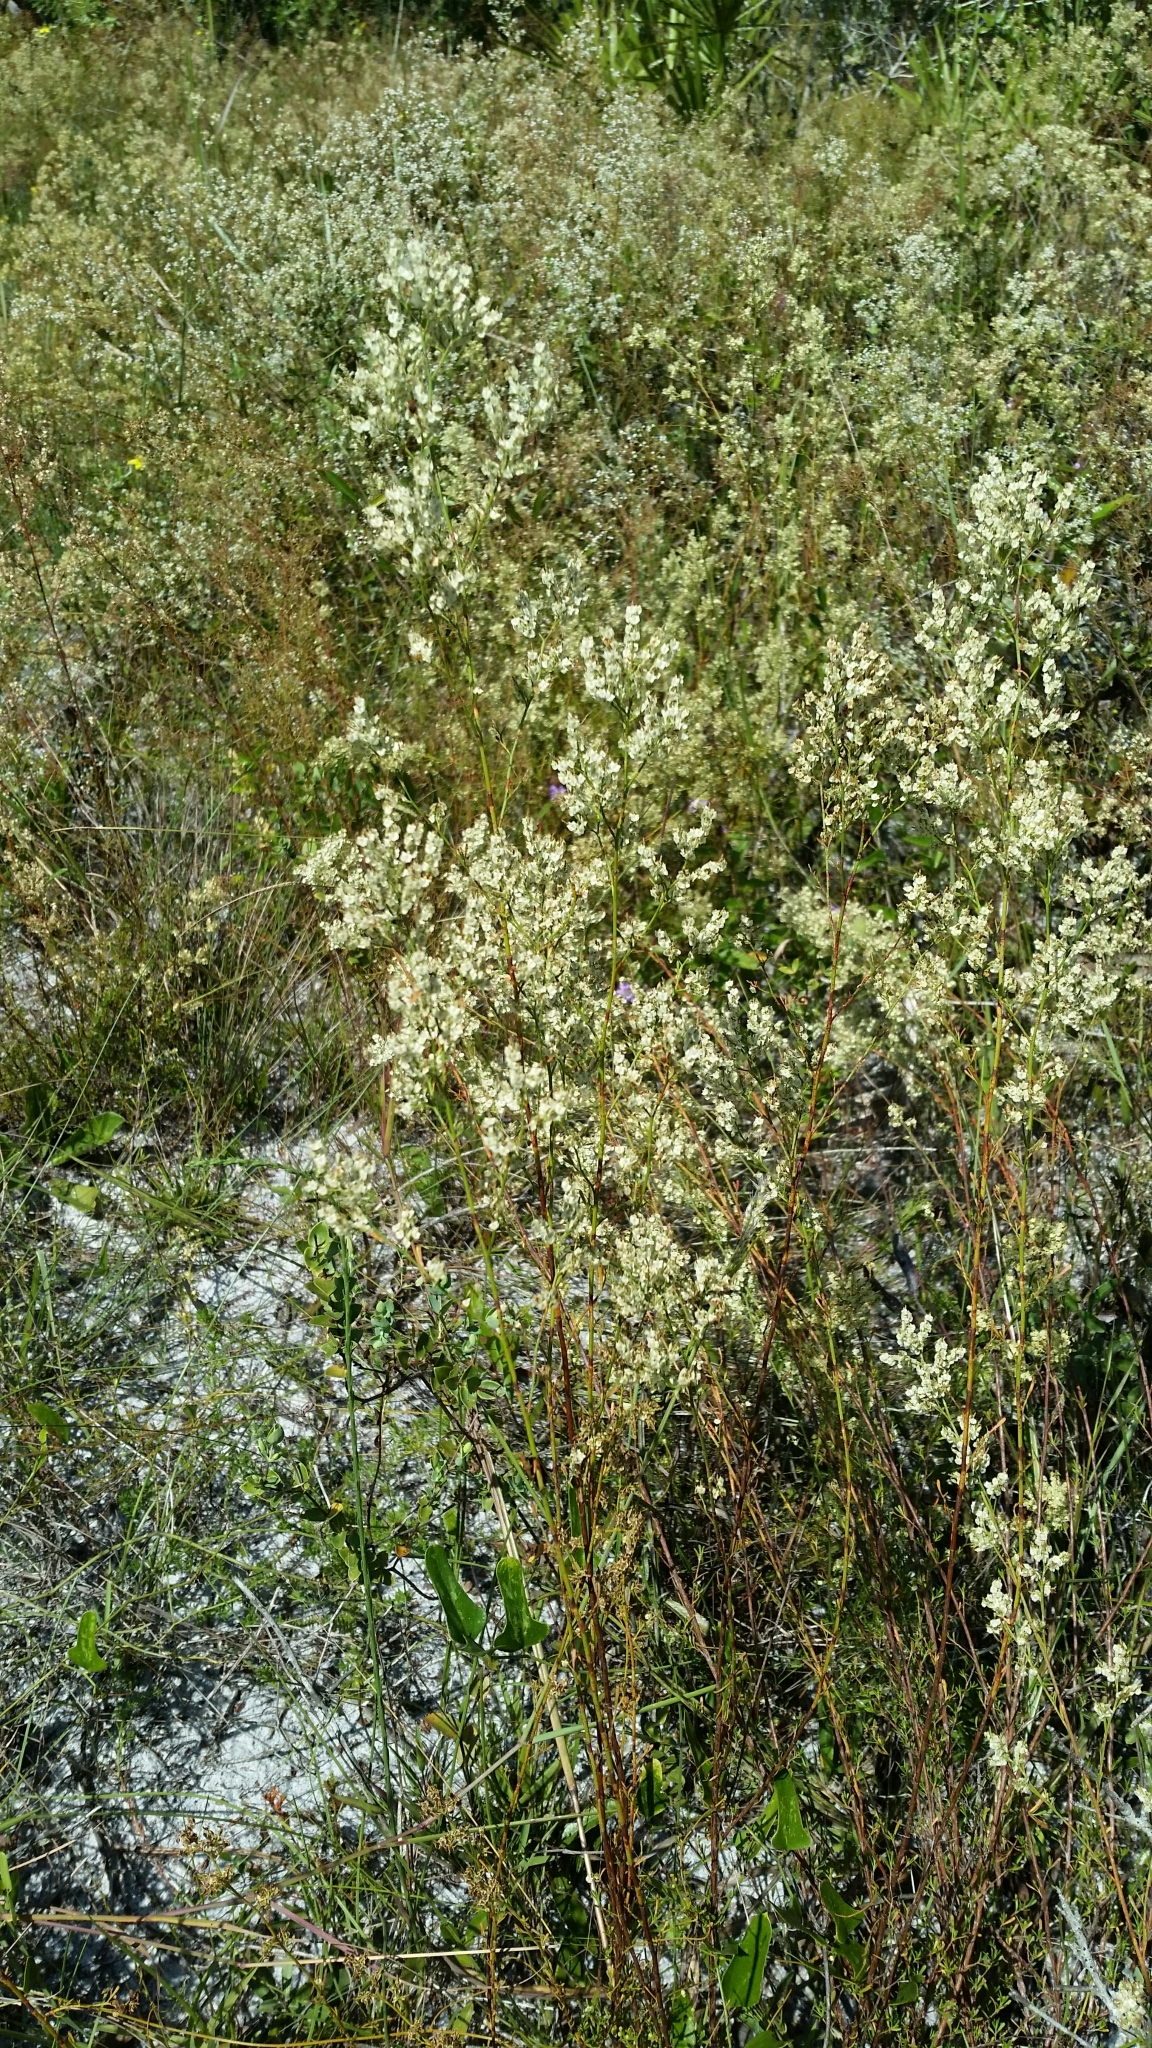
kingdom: Plantae
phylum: Tracheophyta
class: Magnoliopsida
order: Caryophyllales
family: Polygonaceae
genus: Polygonella
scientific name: Polygonella polygama
